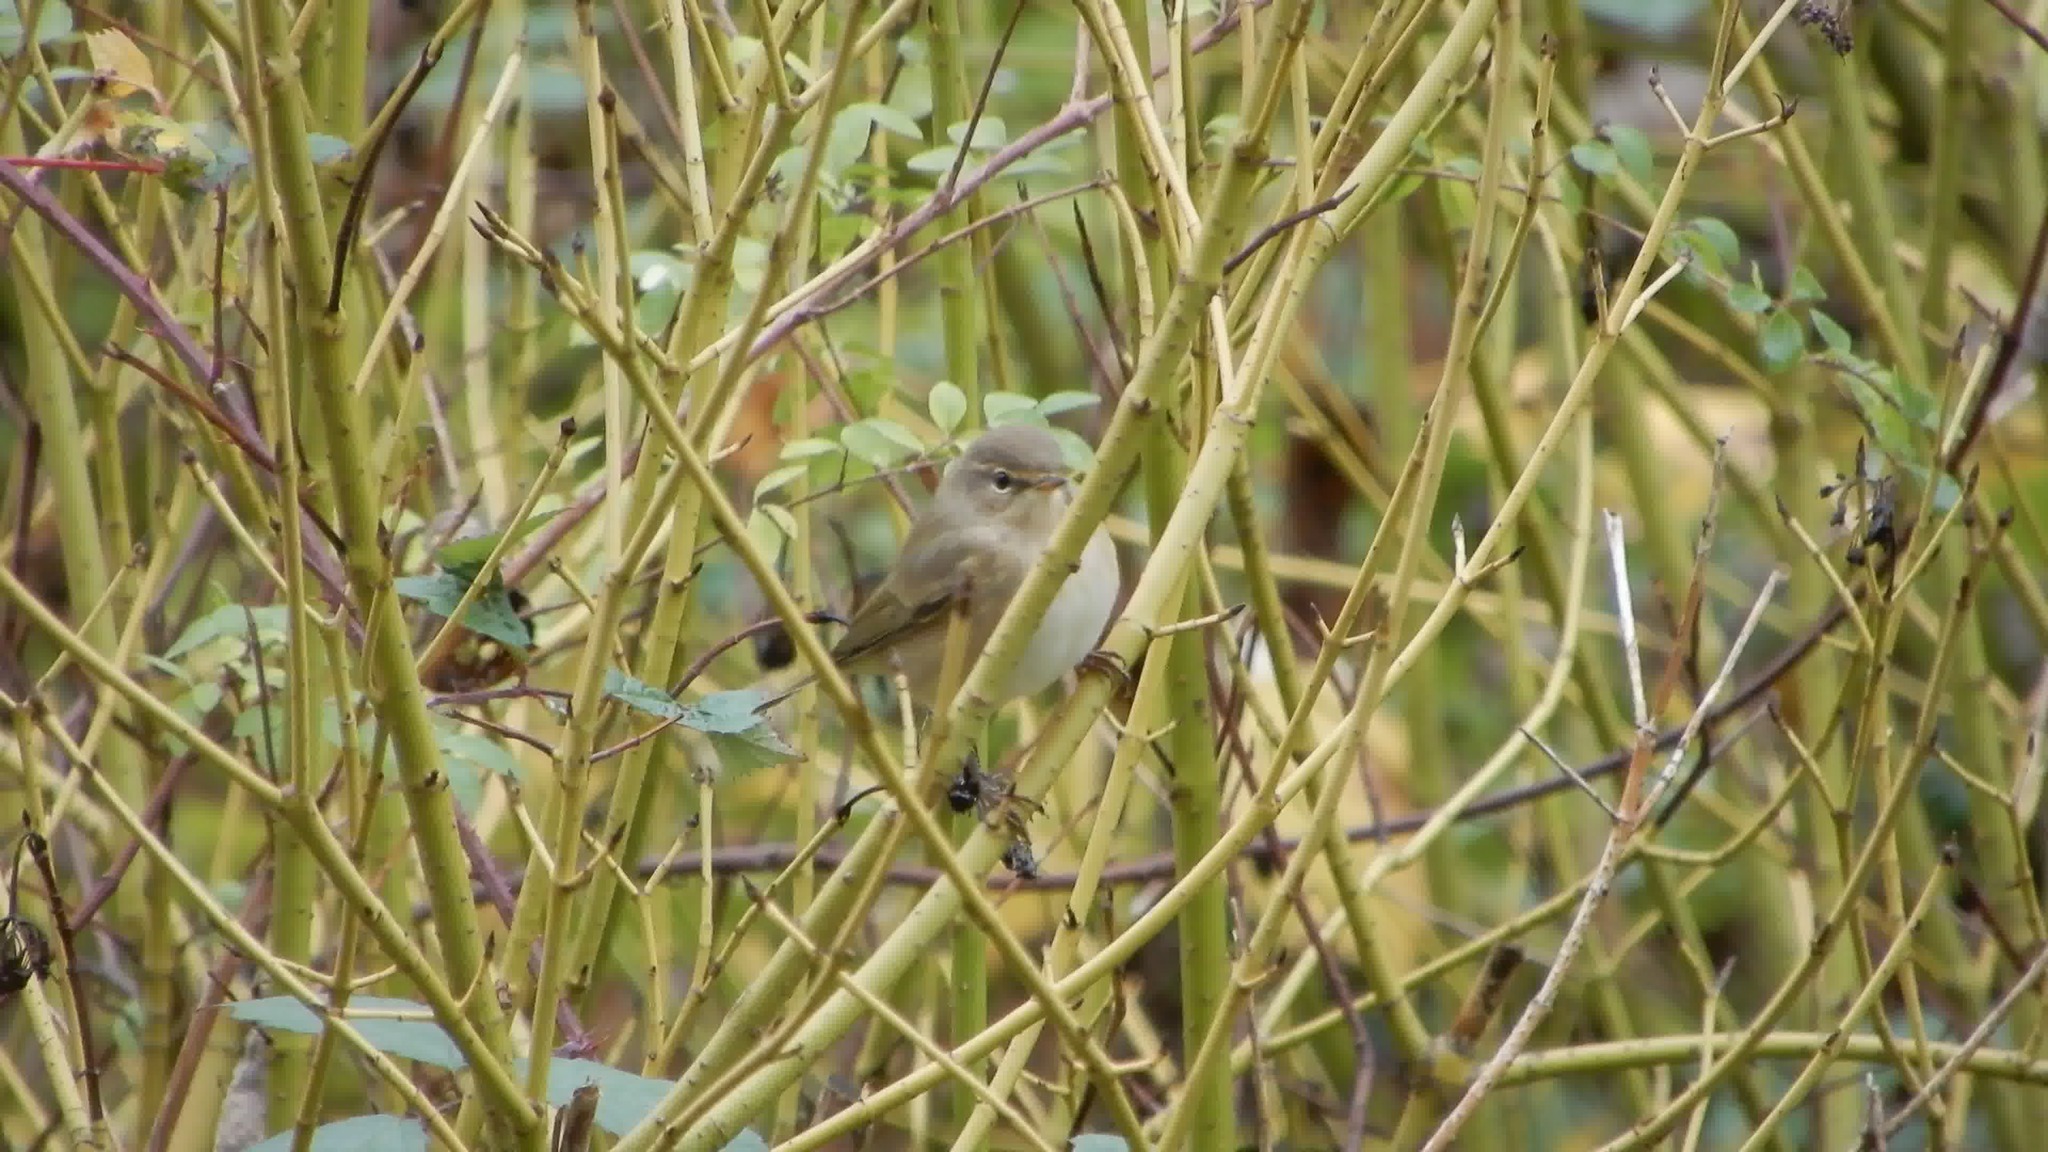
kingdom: Animalia
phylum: Chordata
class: Aves
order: Passeriformes
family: Phylloscopidae
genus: Phylloscopus
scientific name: Phylloscopus collybita
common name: Common chiffchaff
